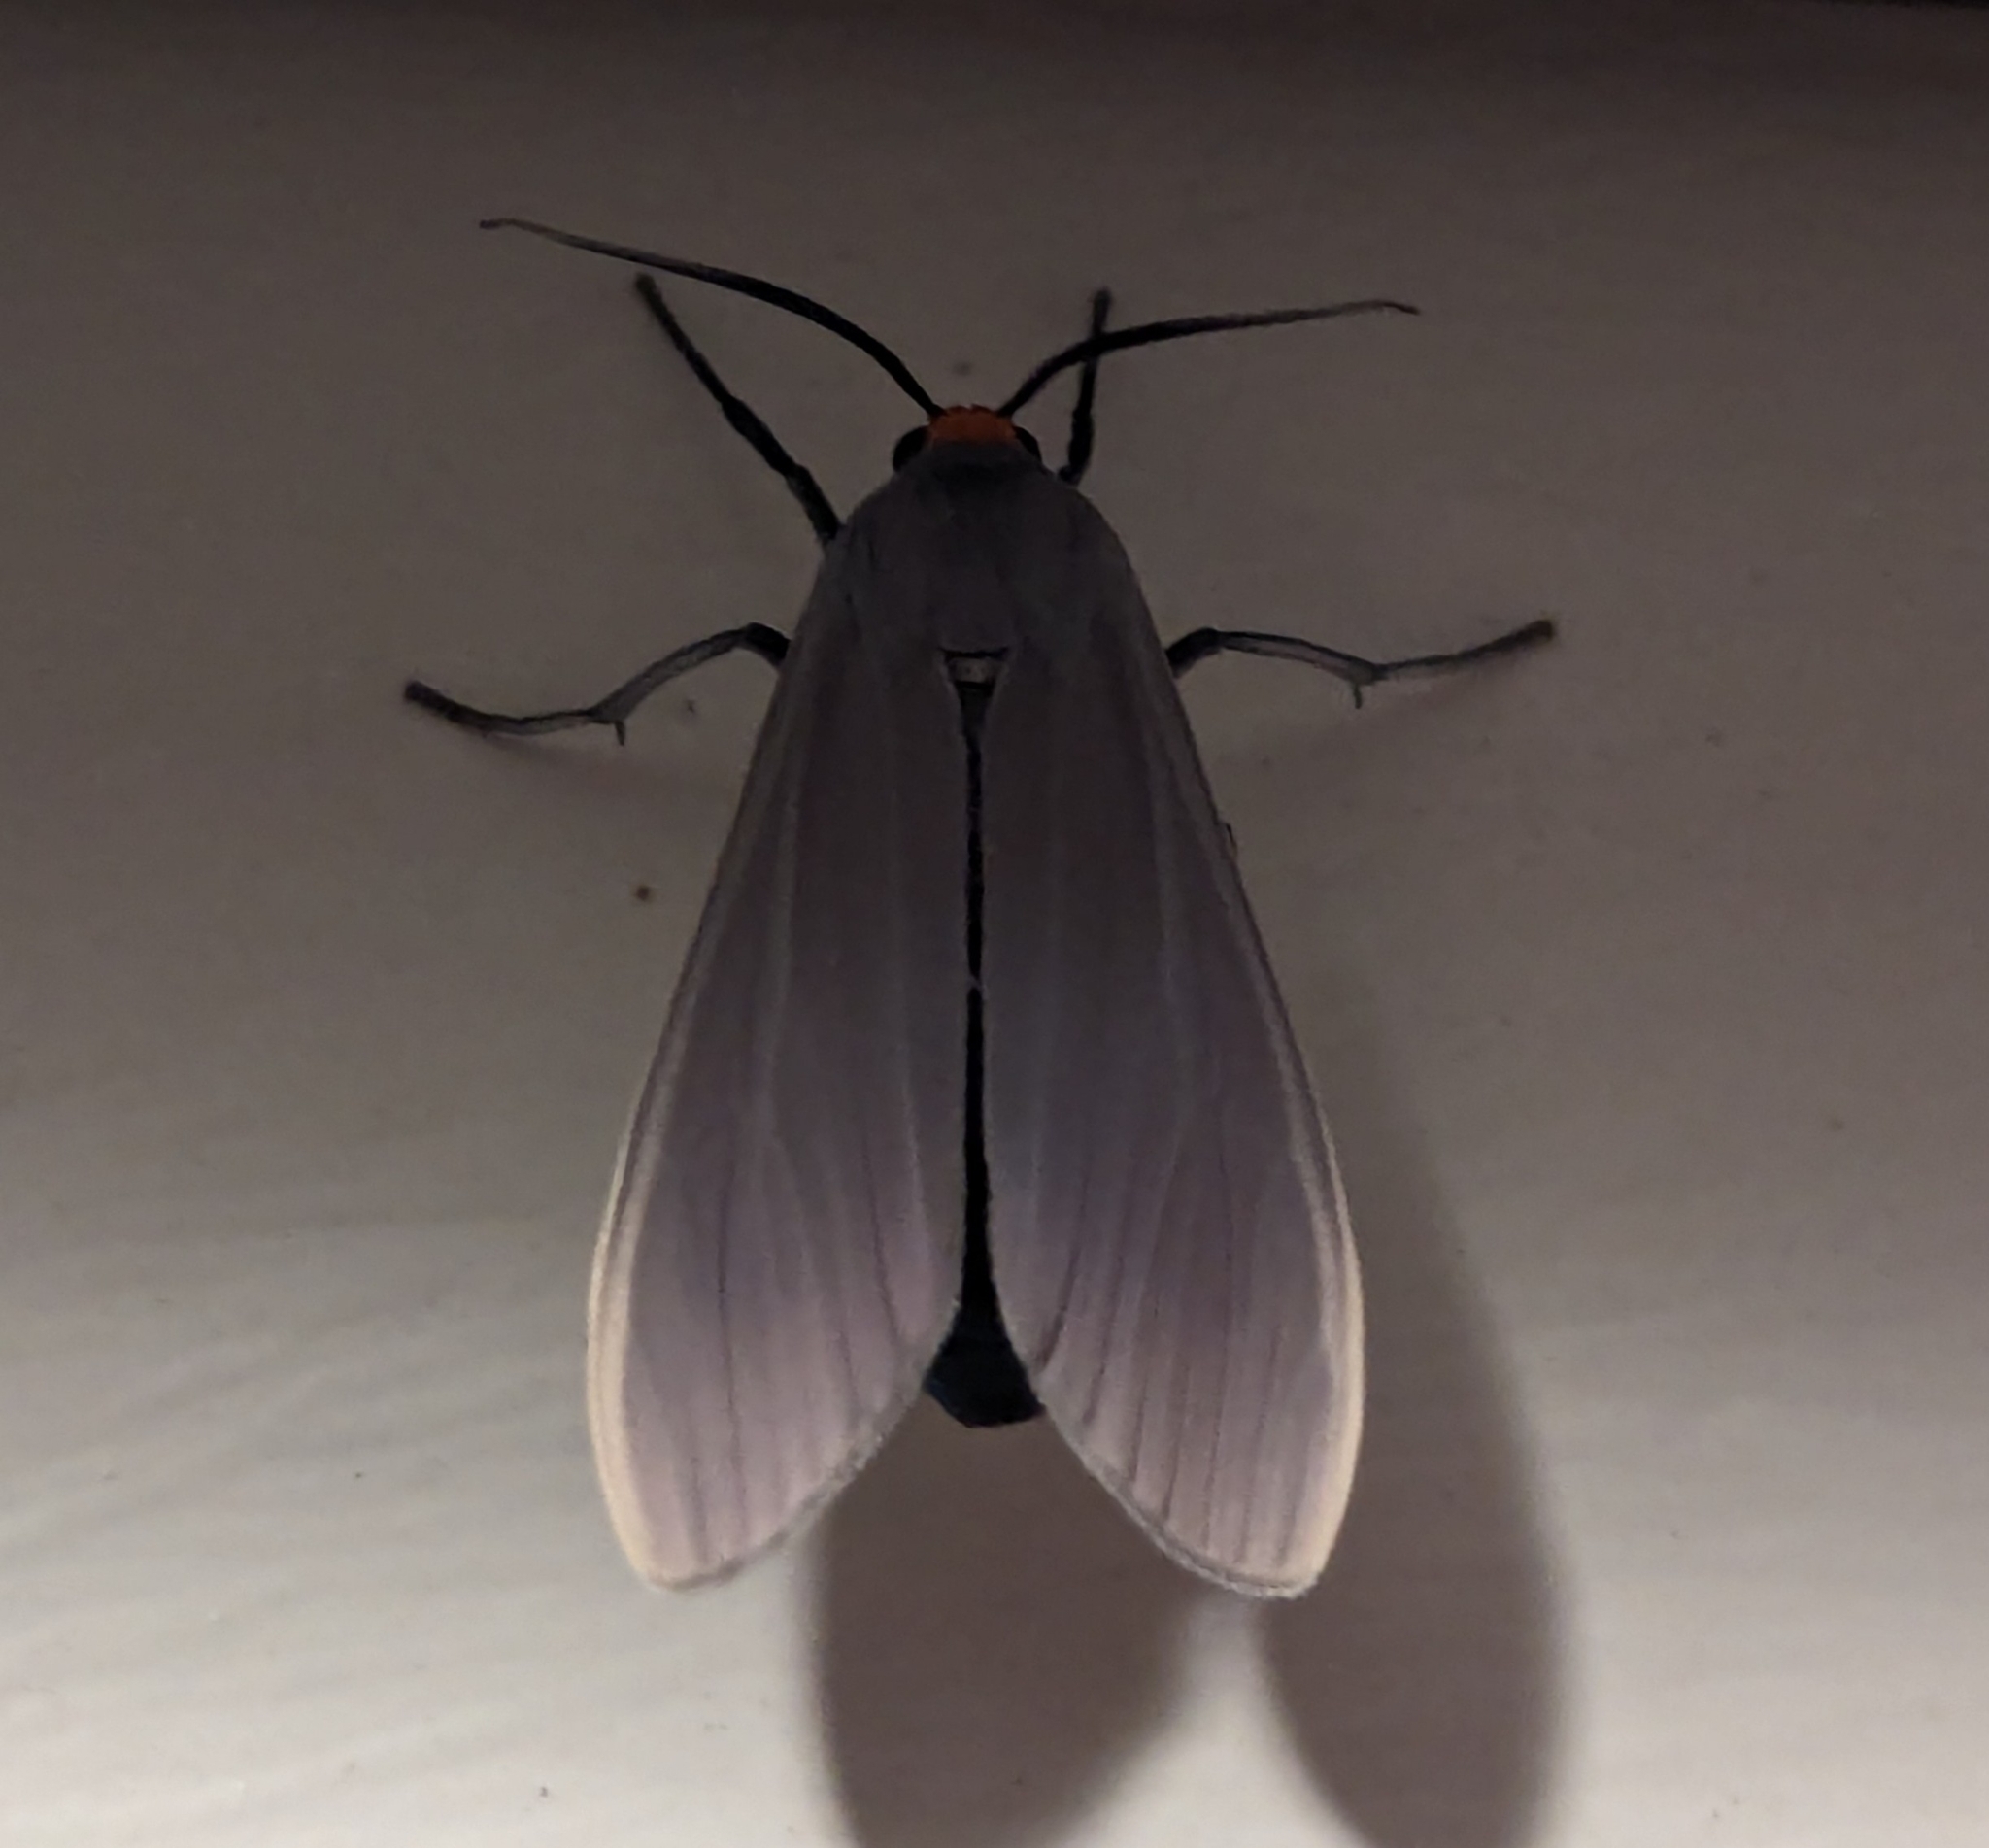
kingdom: Animalia
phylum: Arthropoda
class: Insecta
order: Lepidoptera
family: Erebidae
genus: Lymire
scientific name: Lymire edwardsii
